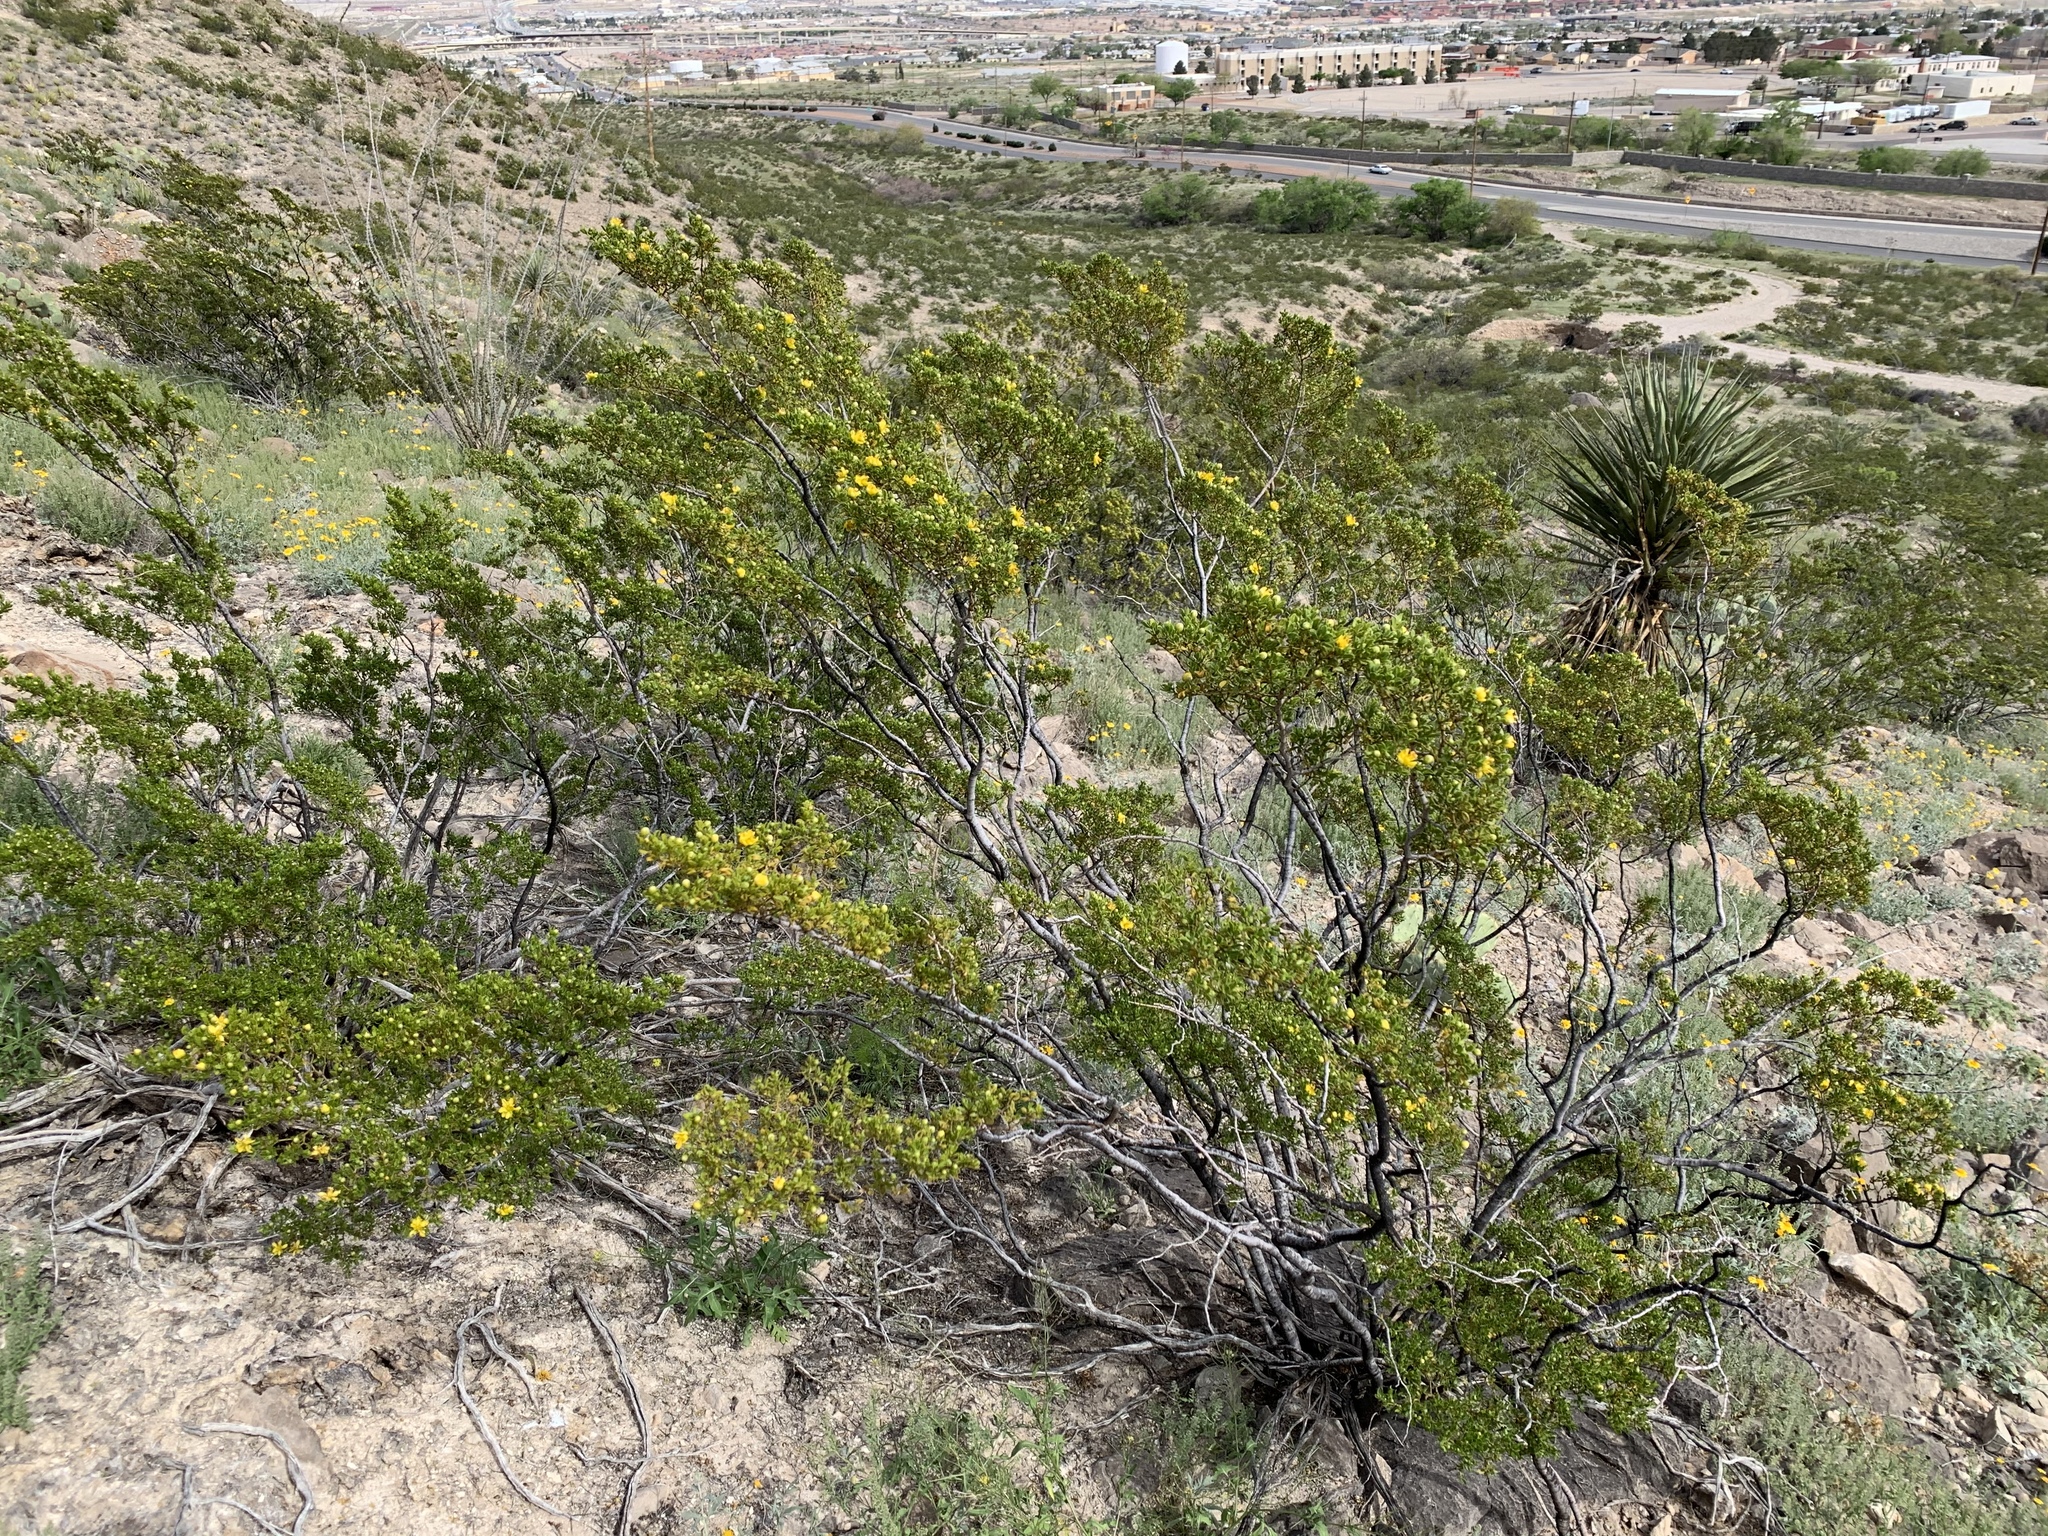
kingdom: Plantae
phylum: Tracheophyta
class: Magnoliopsida
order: Zygophyllales
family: Zygophyllaceae
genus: Larrea
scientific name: Larrea tridentata
